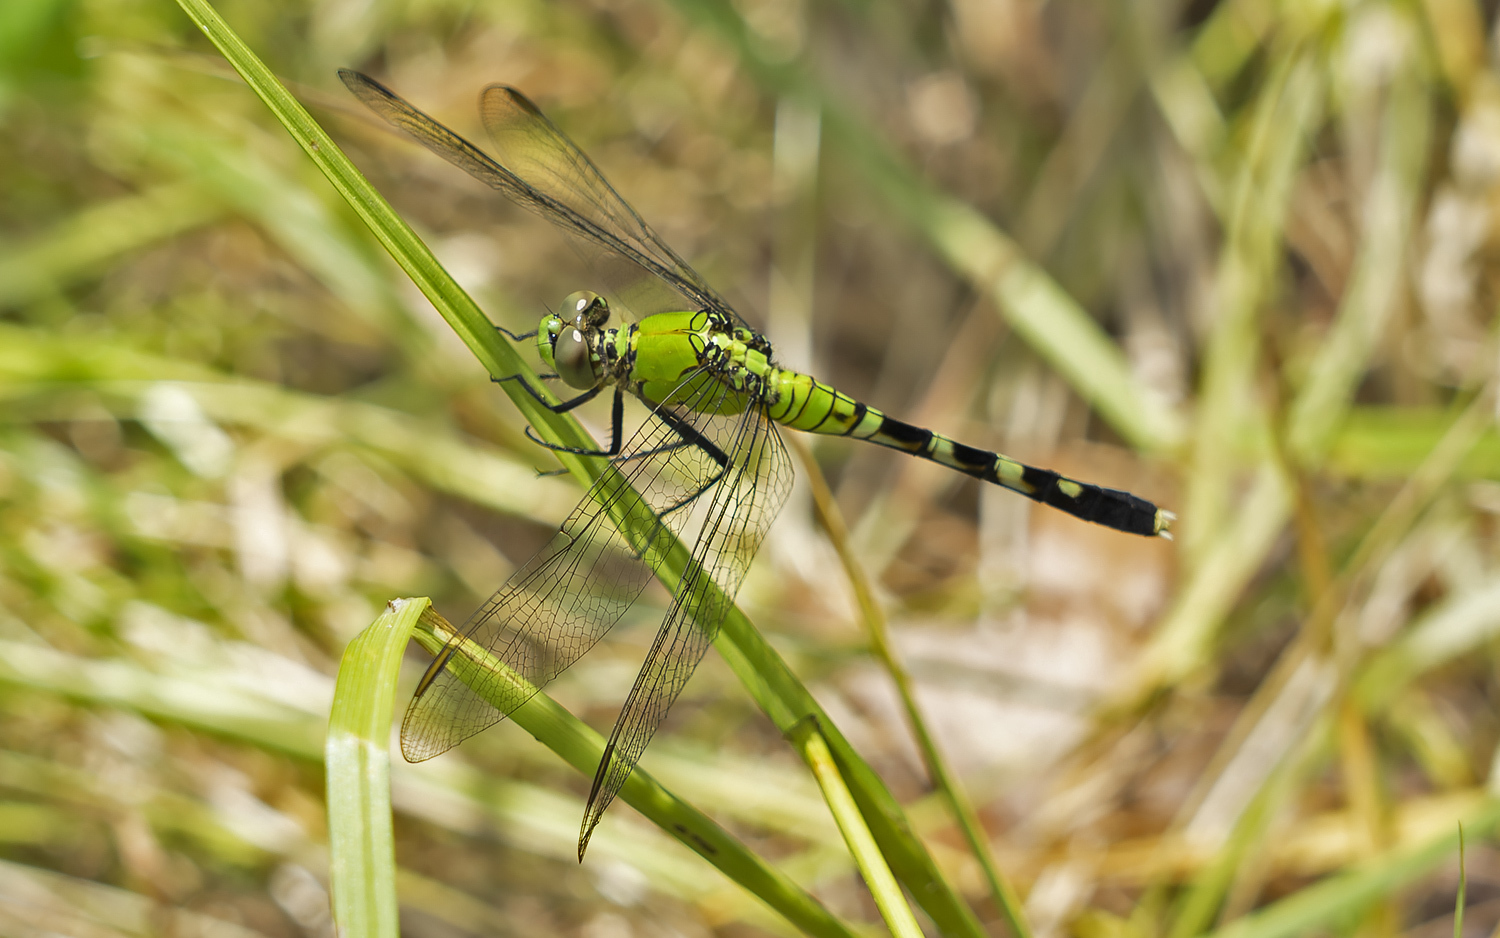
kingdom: Animalia
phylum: Arthropoda
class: Insecta
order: Odonata
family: Libellulidae
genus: Erythemis
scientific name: Erythemis simplicicollis
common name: Eastern pondhawk
